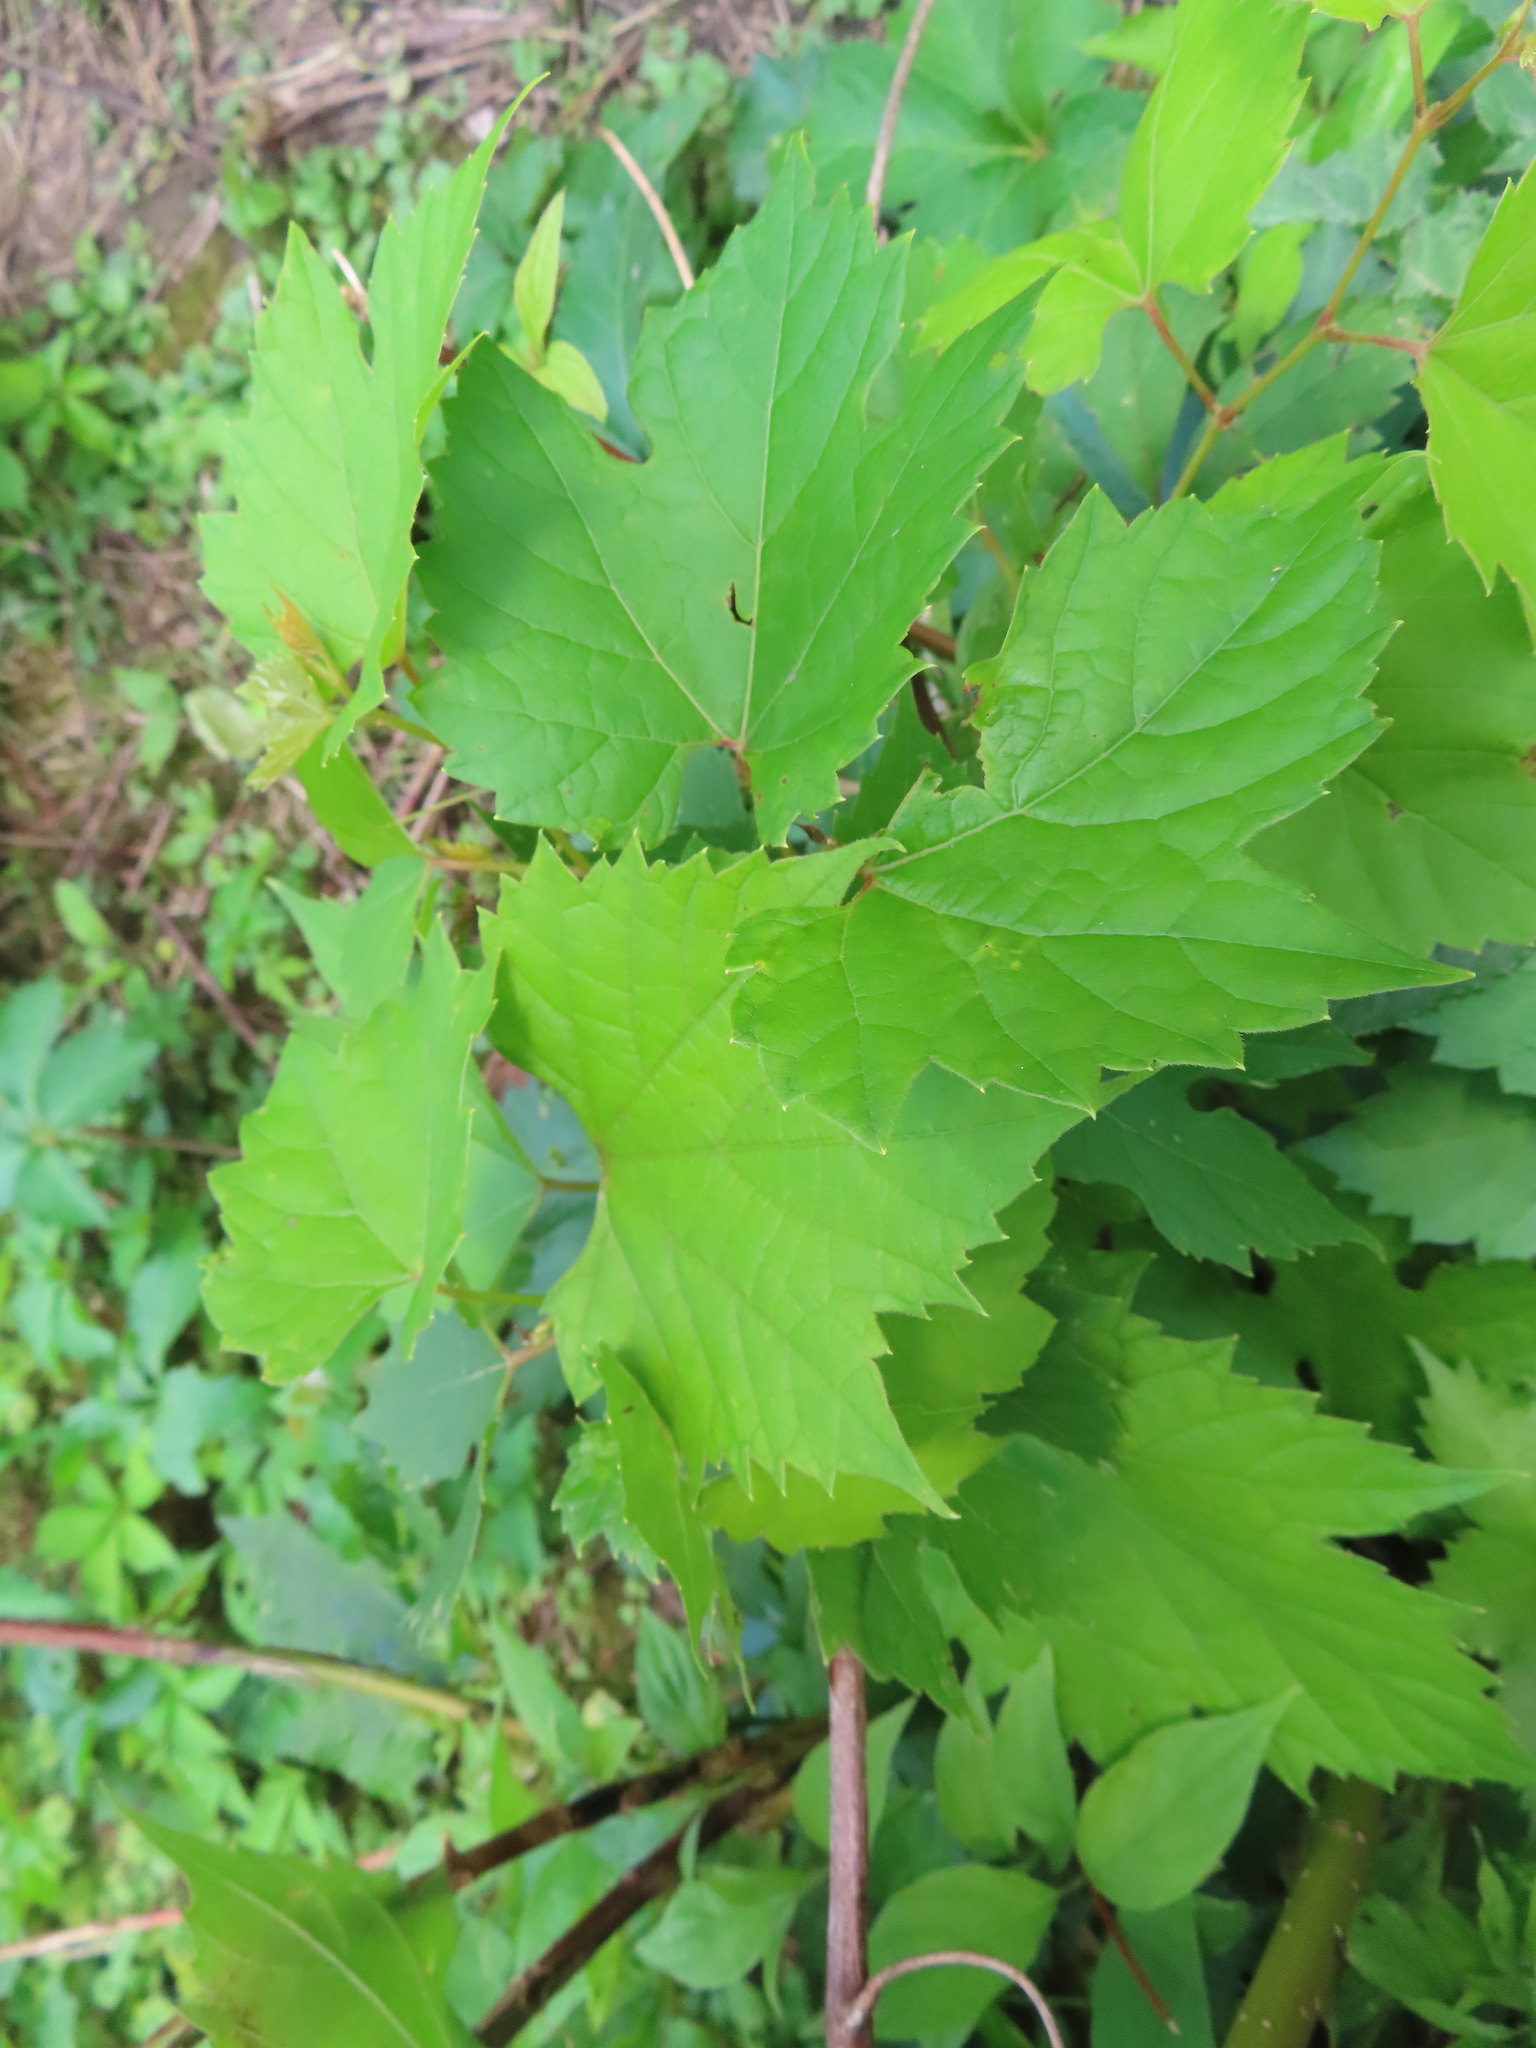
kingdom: Plantae
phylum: Tracheophyta
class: Magnoliopsida
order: Vitales
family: Vitaceae
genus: Vitis
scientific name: Vitis riparia
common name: Frost grape
